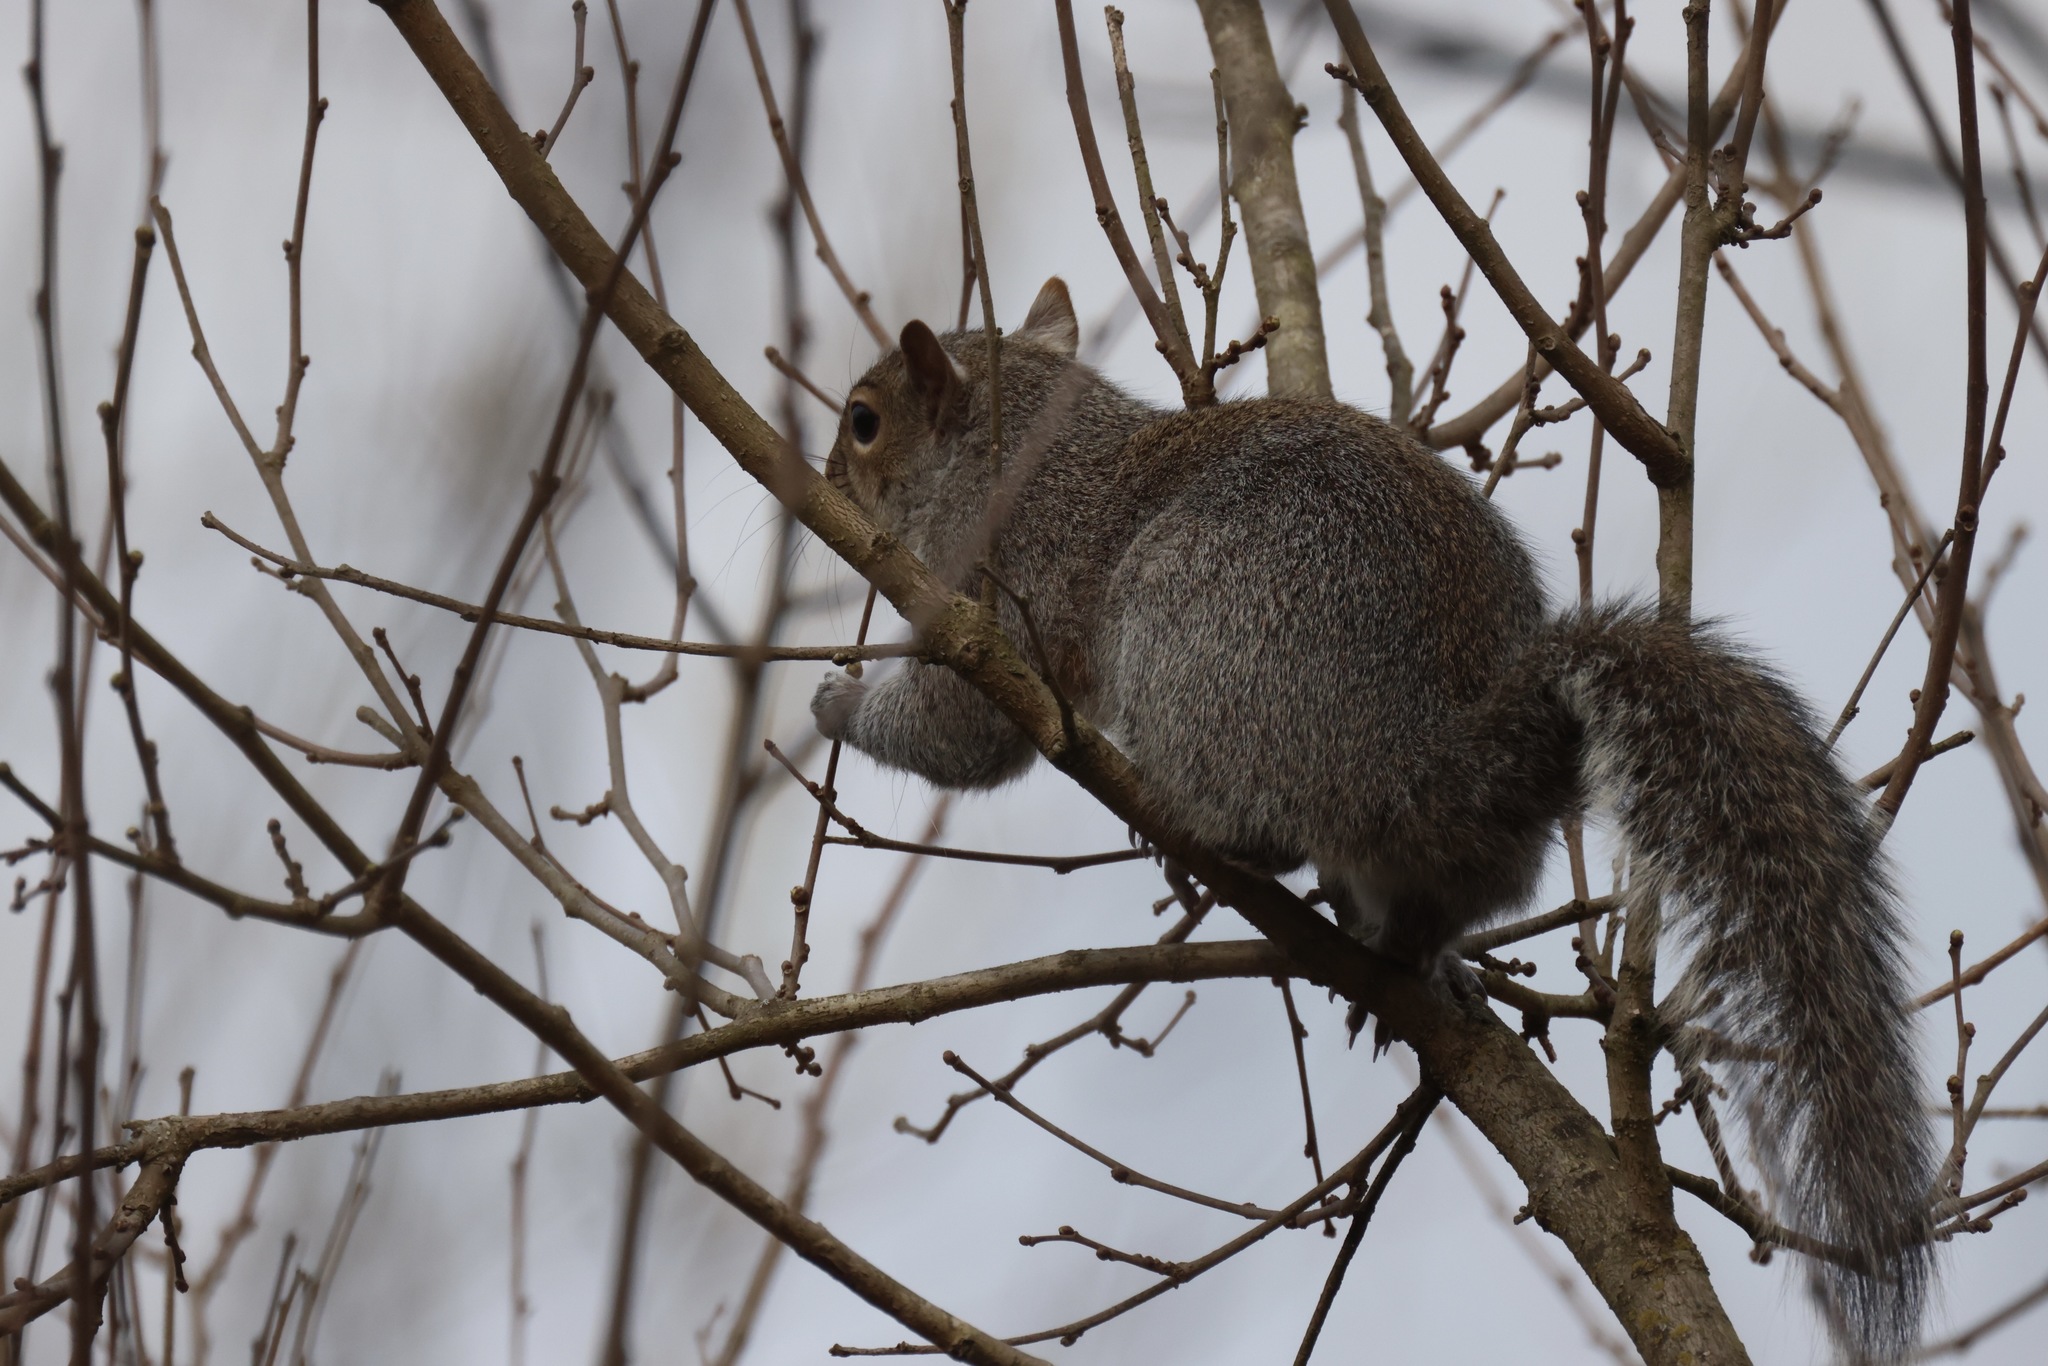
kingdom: Animalia
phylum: Chordata
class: Mammalia
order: Rodentia
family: Sciuridae
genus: Sciurus
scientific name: Sciurus carolinensis
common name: Eastern gray squirrel
